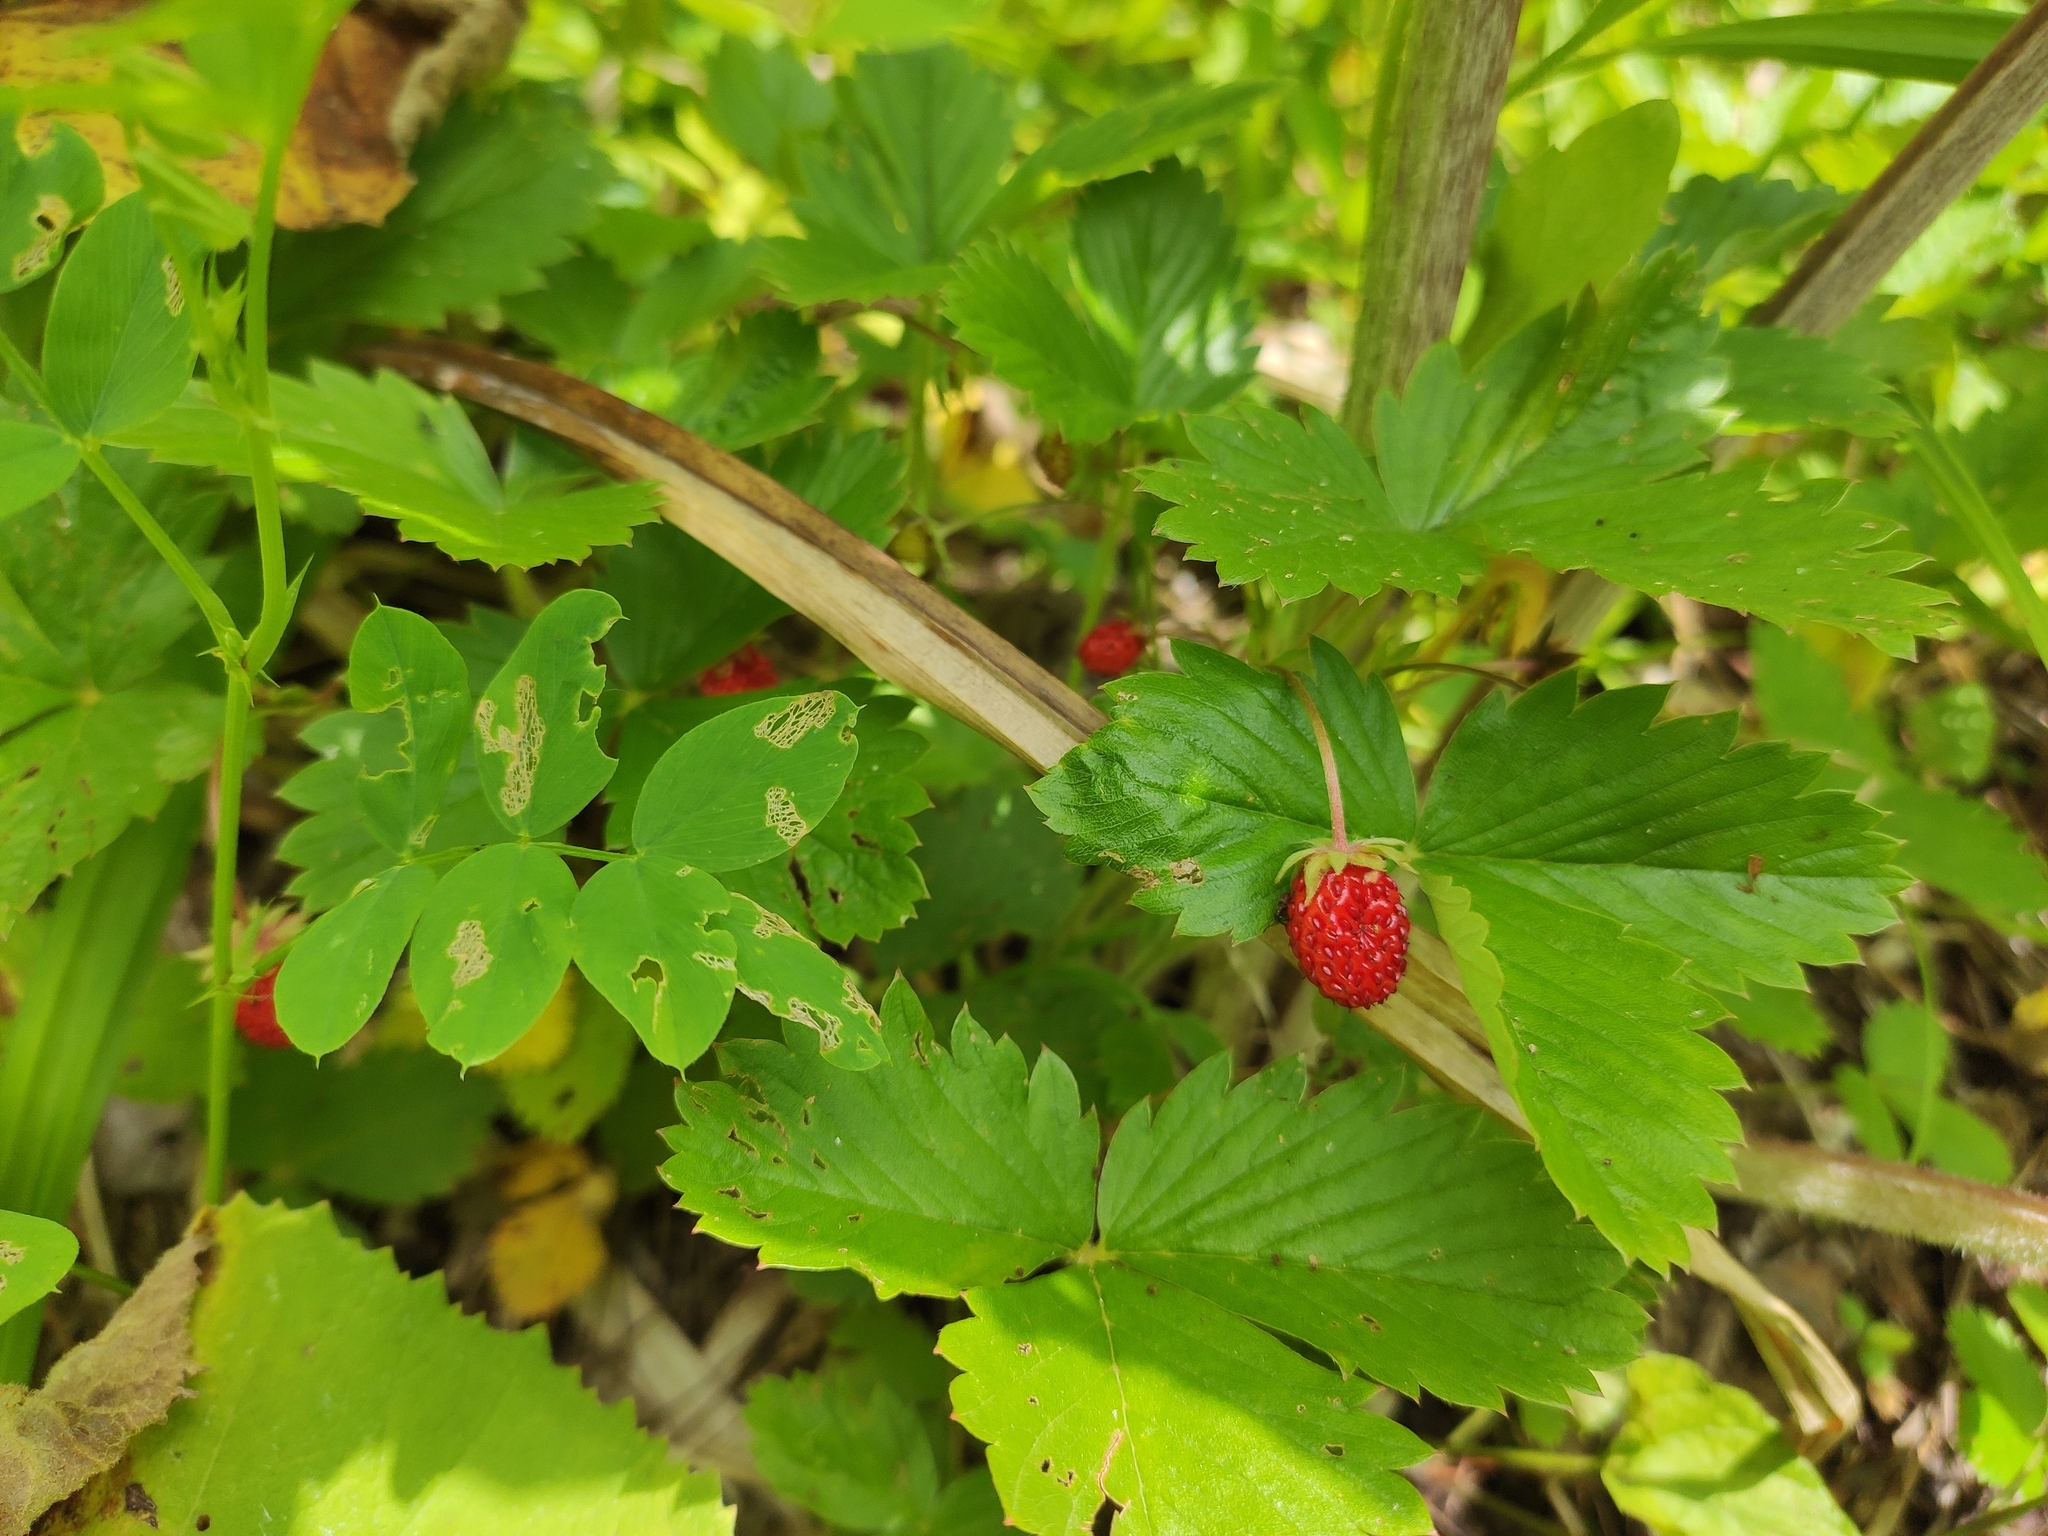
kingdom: Plantae
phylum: Tracheophyta
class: Magnoliopsida
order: Rosales
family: Rosaceae
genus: Fragaria
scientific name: Fragaria vesca
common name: Wild strawberry
